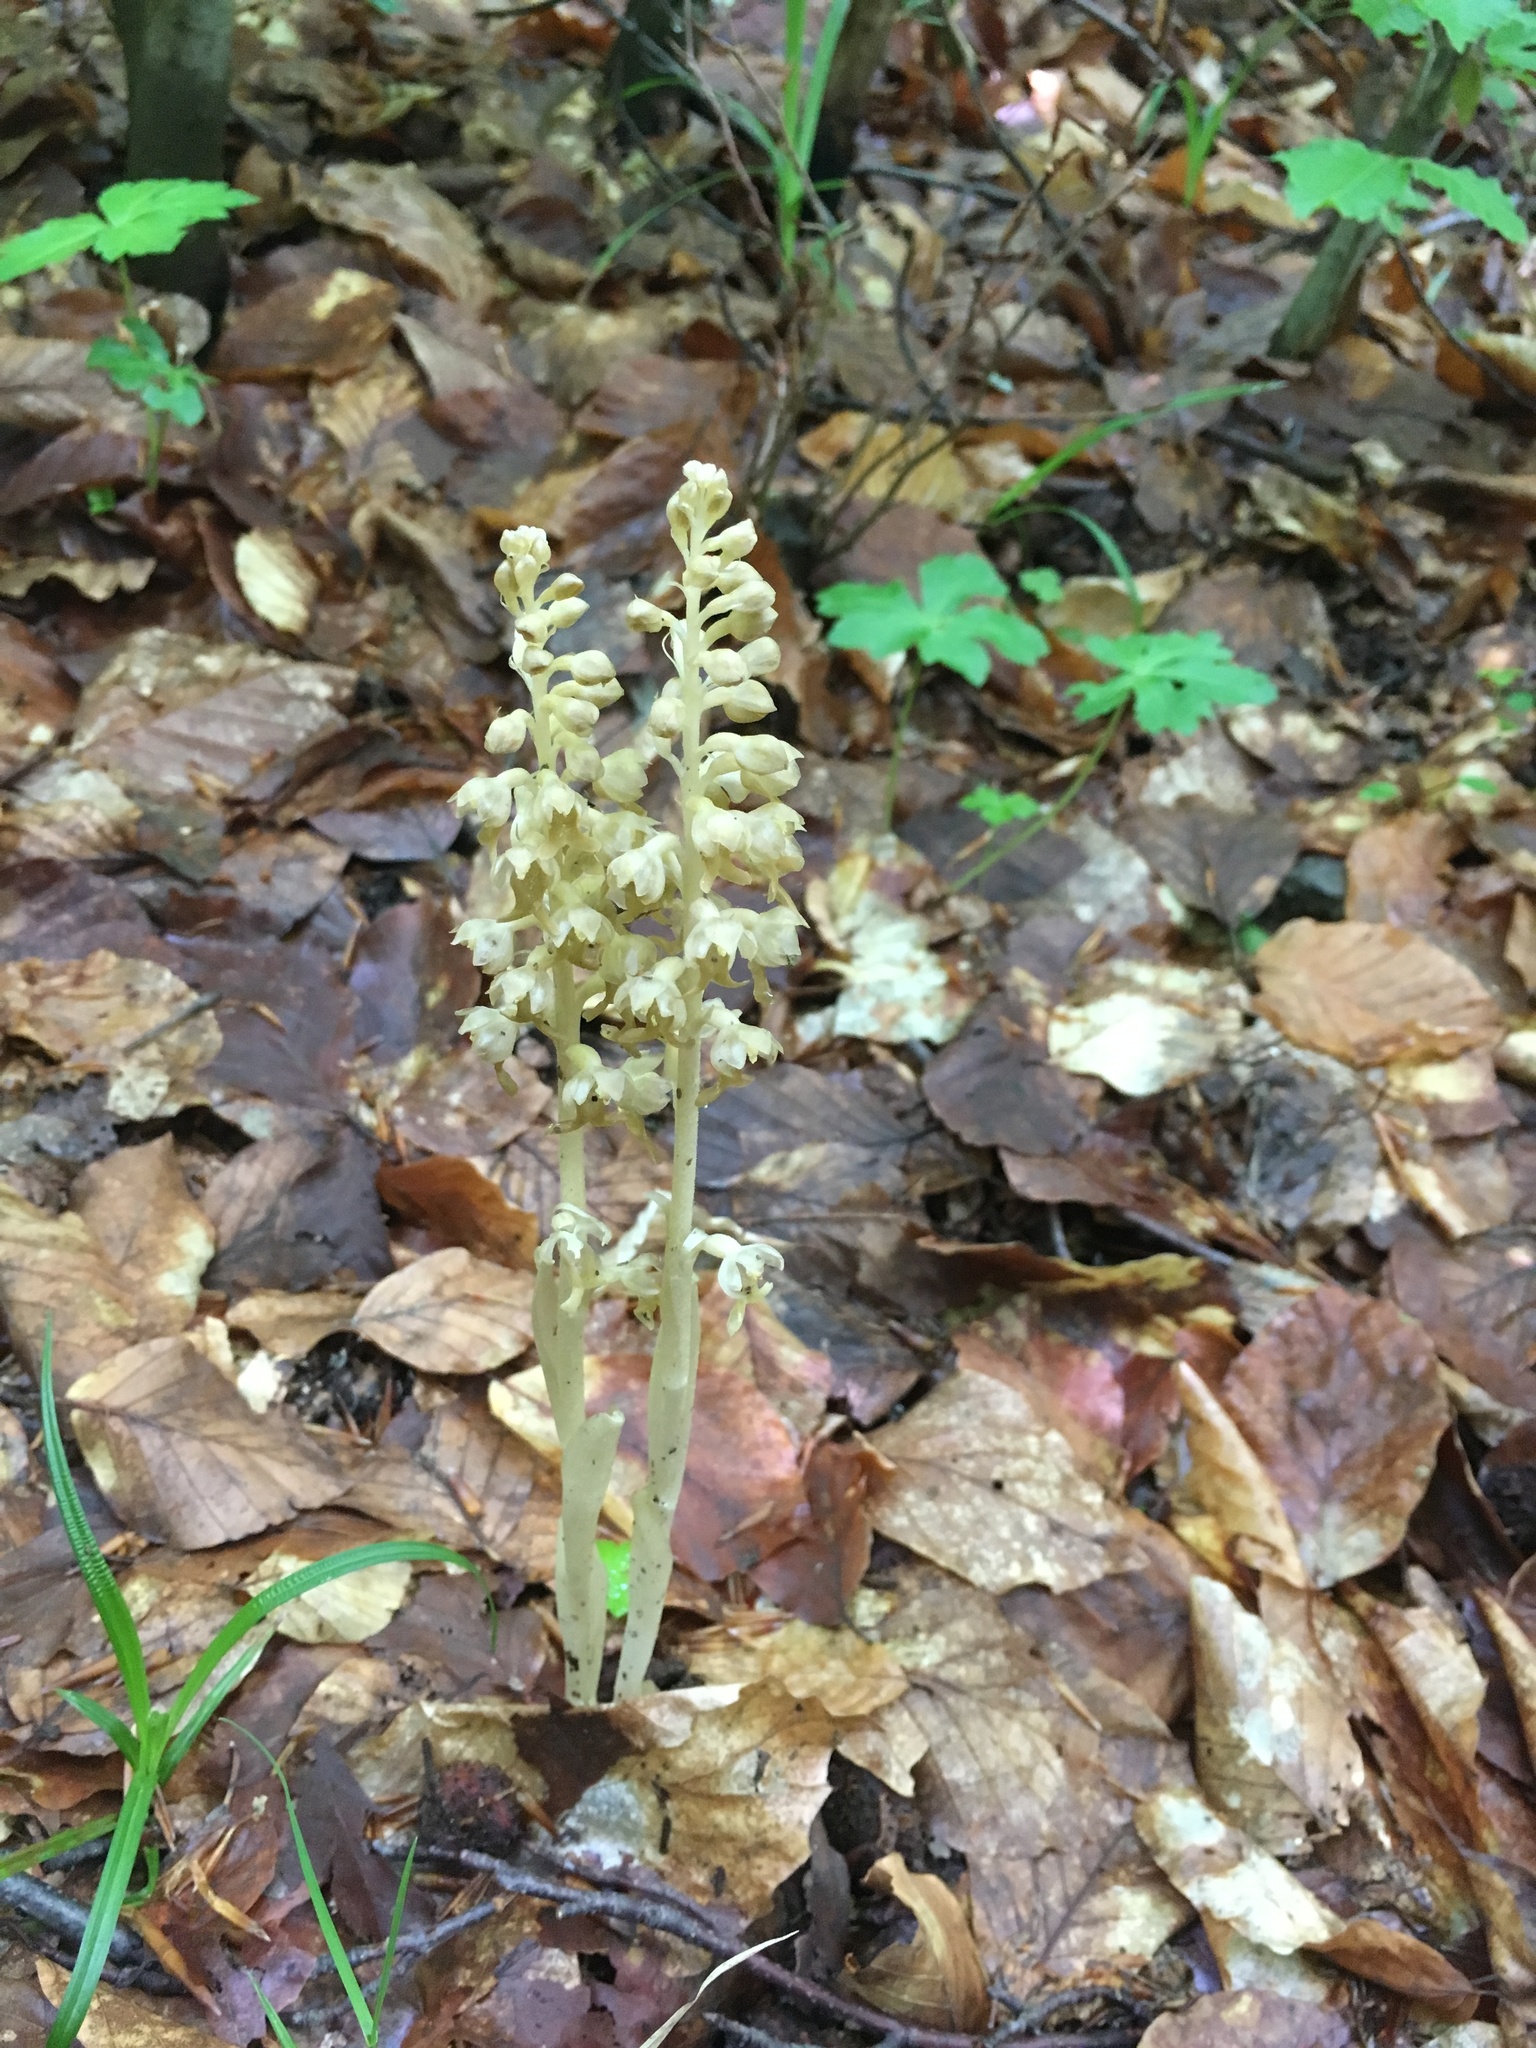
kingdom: Plantae
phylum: Tracheophyta
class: Liliopsida
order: Asparagales
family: Orchidaceae
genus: Neottia
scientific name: Neottia nidus-avis
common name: Bird's-nest orchid
